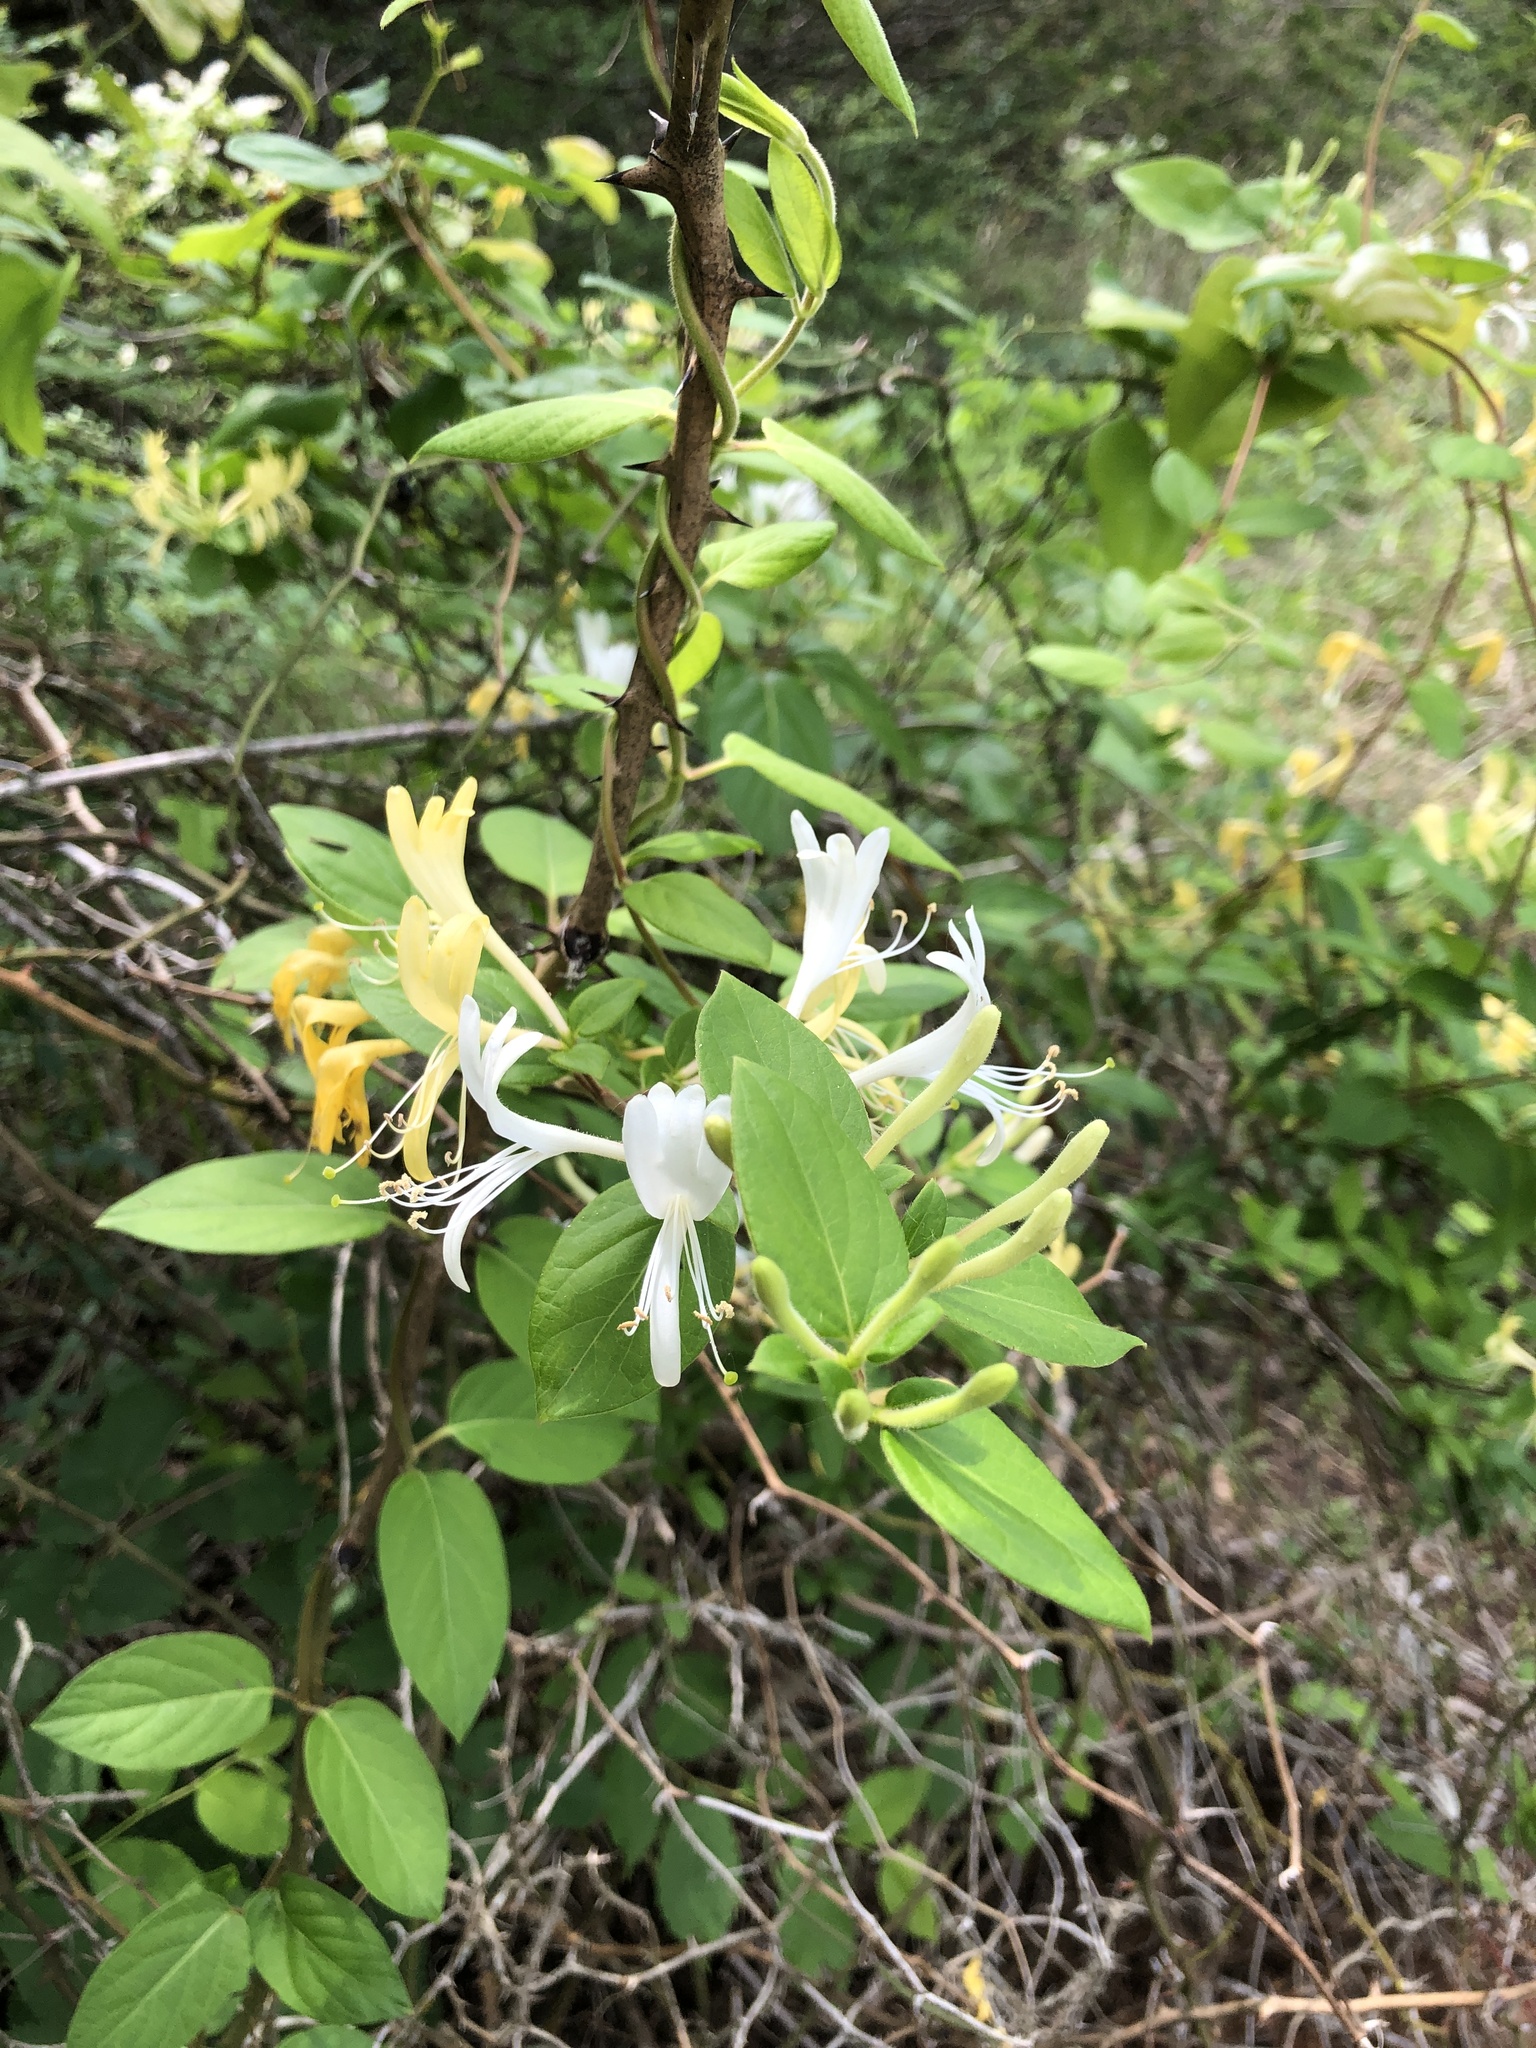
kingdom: Plantae
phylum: Tracheophyta
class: Magnoliopsida
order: Dipsacales
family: Caprifoliaceae
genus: Lonicera
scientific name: Lonicera japonica
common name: Japanese honeysuckle
